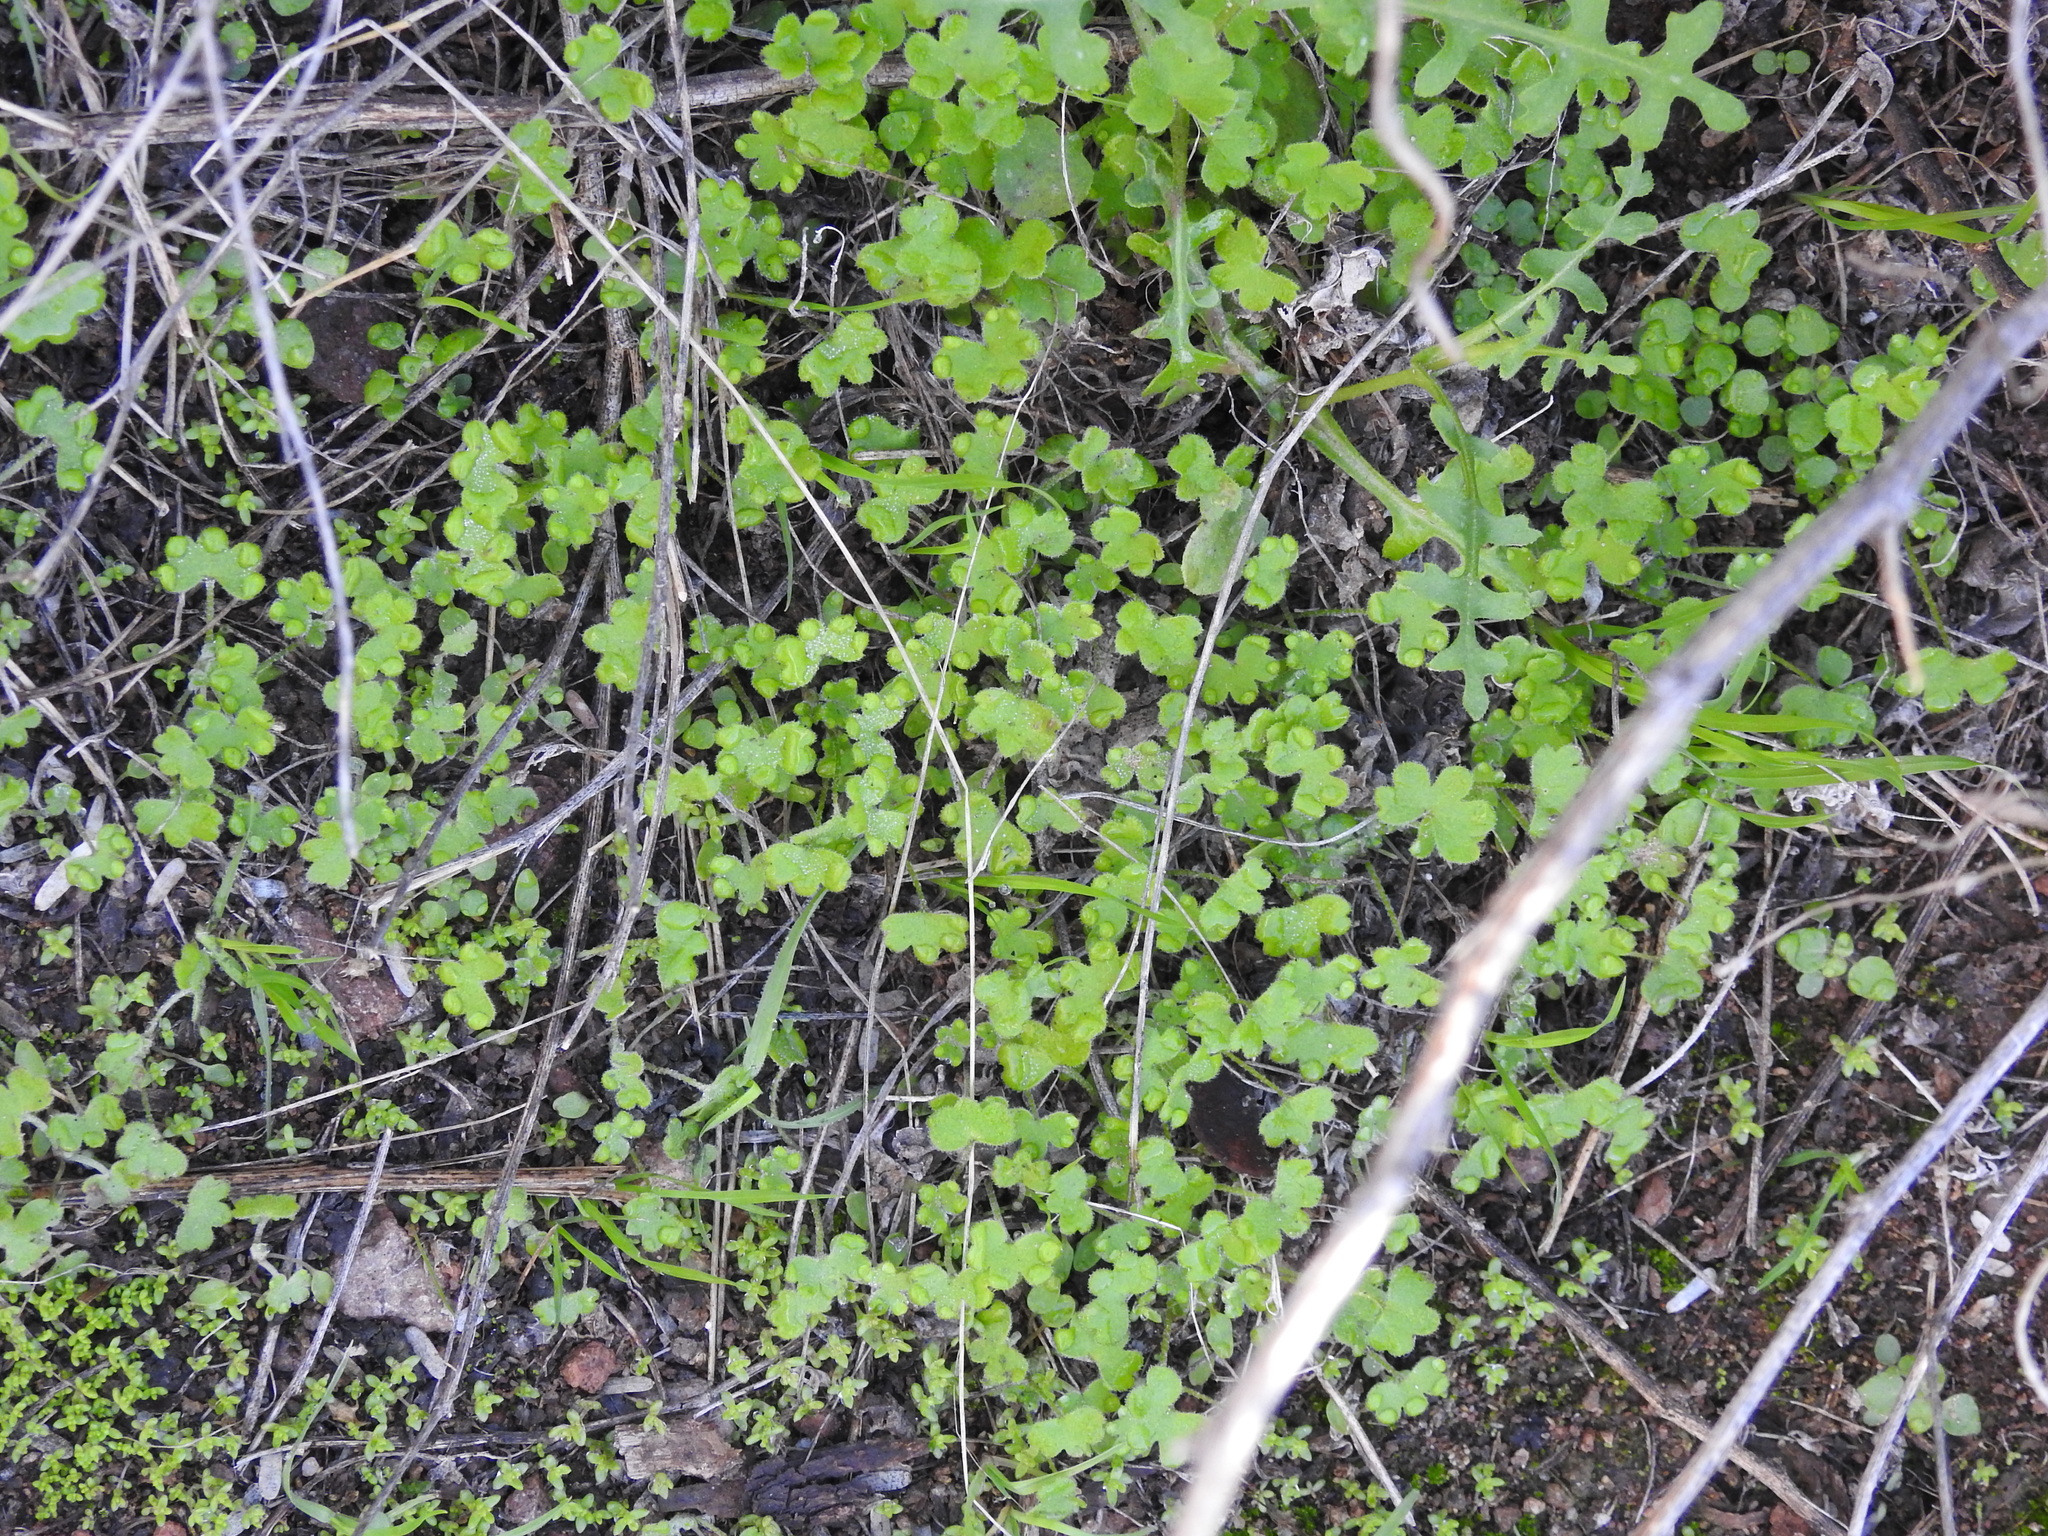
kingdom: Plantae
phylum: Tracheophyta
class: Magnoliopsida
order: Apiales
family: Apiaceae
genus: Bowlesia
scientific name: Bowlesia incana
